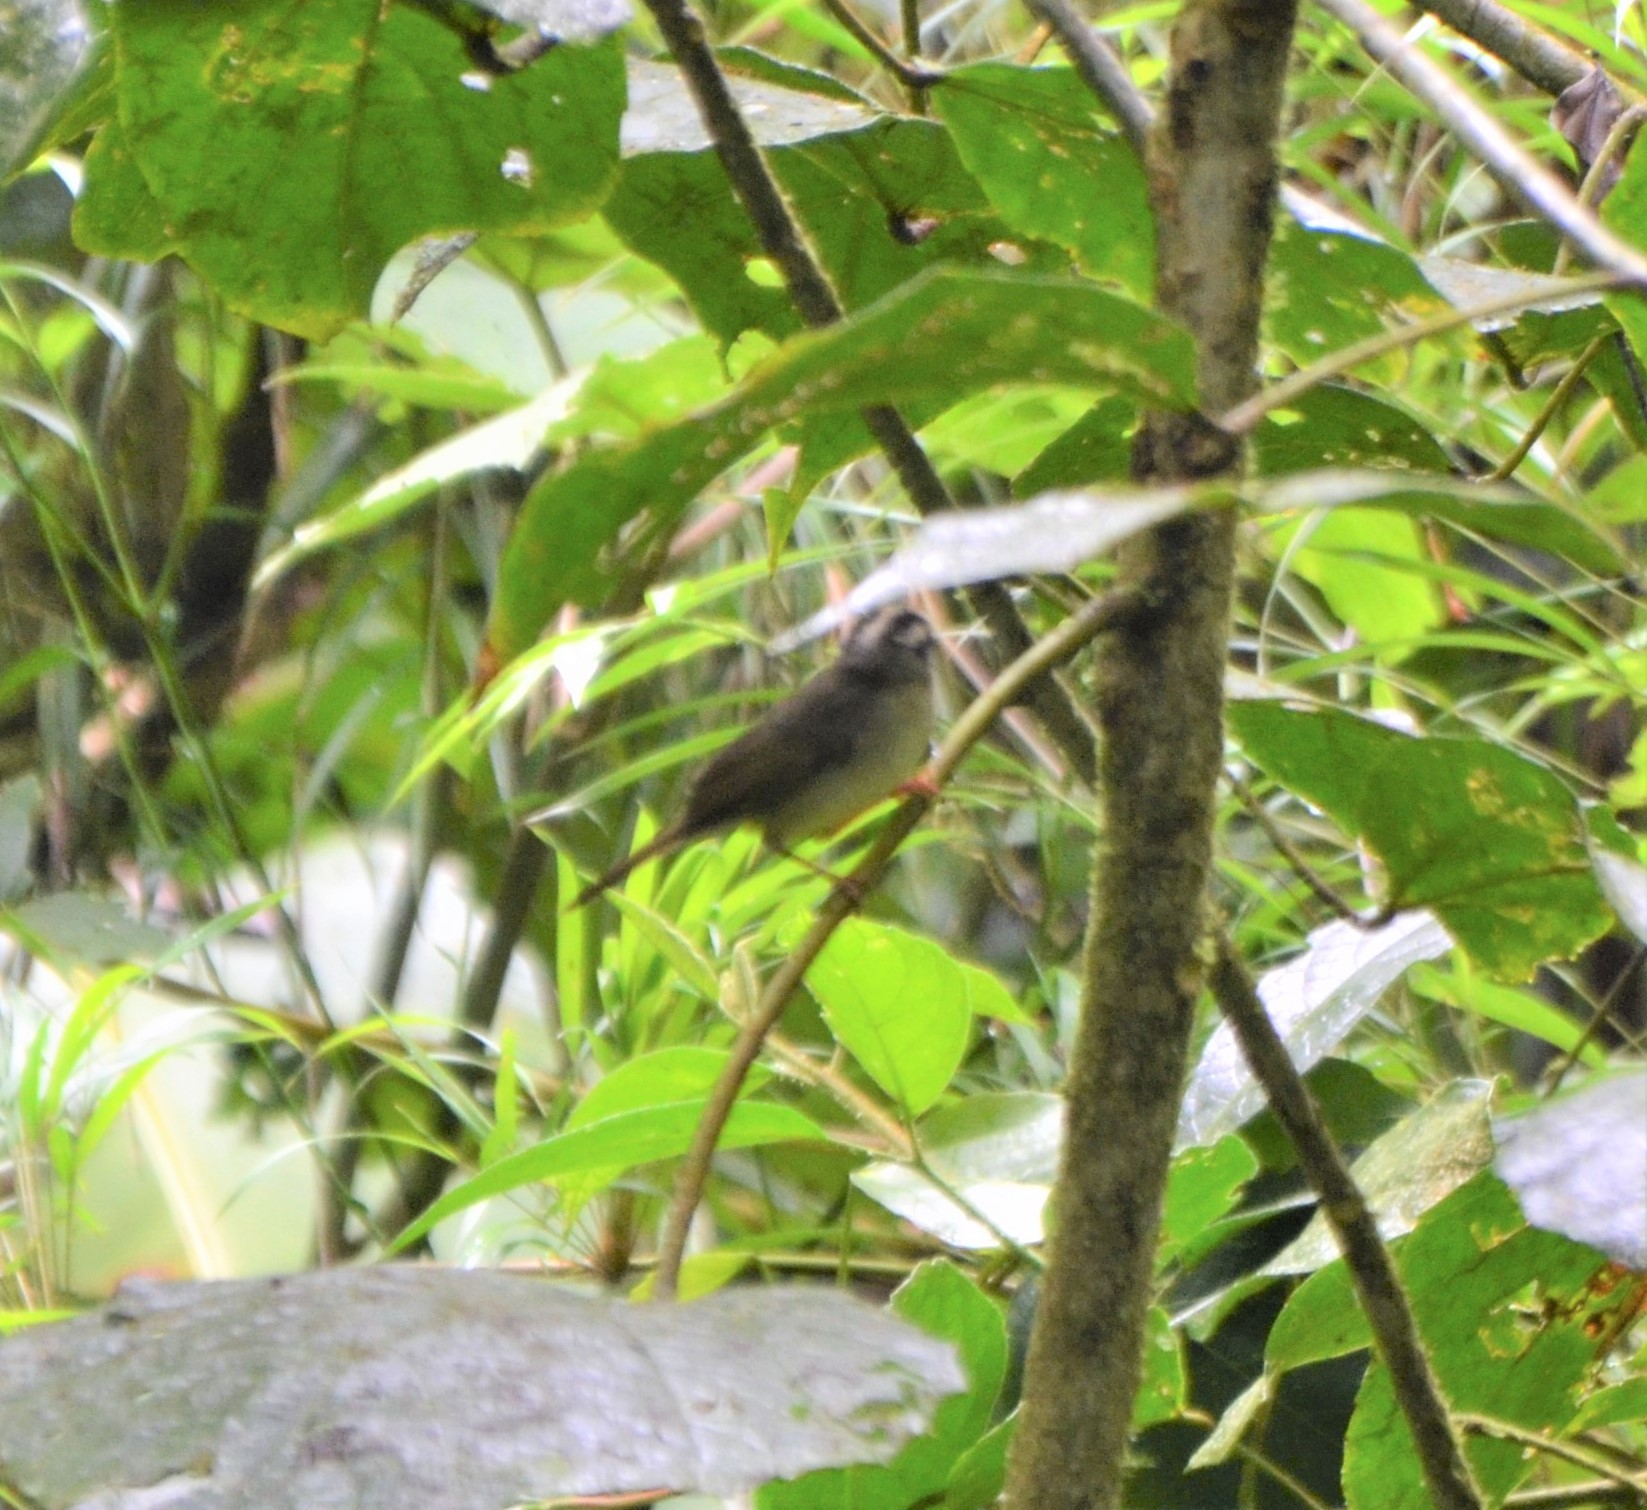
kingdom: Animalia
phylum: Chordata
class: Aves
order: Passeriformes
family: Parulidae
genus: Basileuterus
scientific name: Basileuterus melanotis
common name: Black-eared warbler
